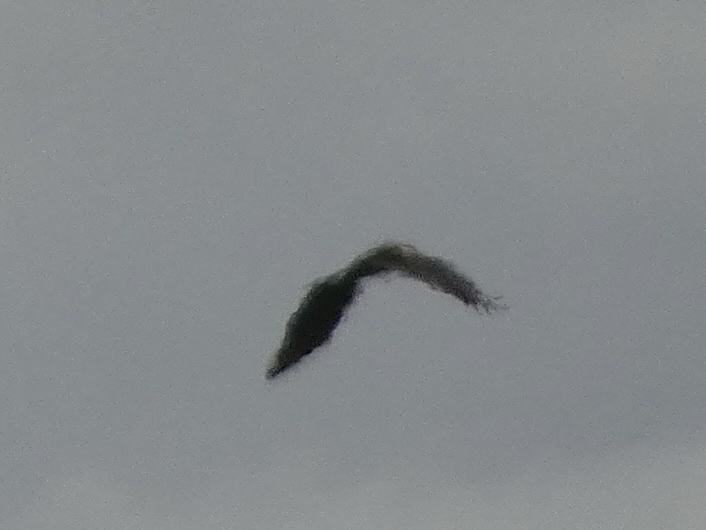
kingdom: Animalia
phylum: Chordata
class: Aves
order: Accipitriformes
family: Accipitridae
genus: Circus
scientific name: Circus aeruginosus
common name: Western marsh harrier
